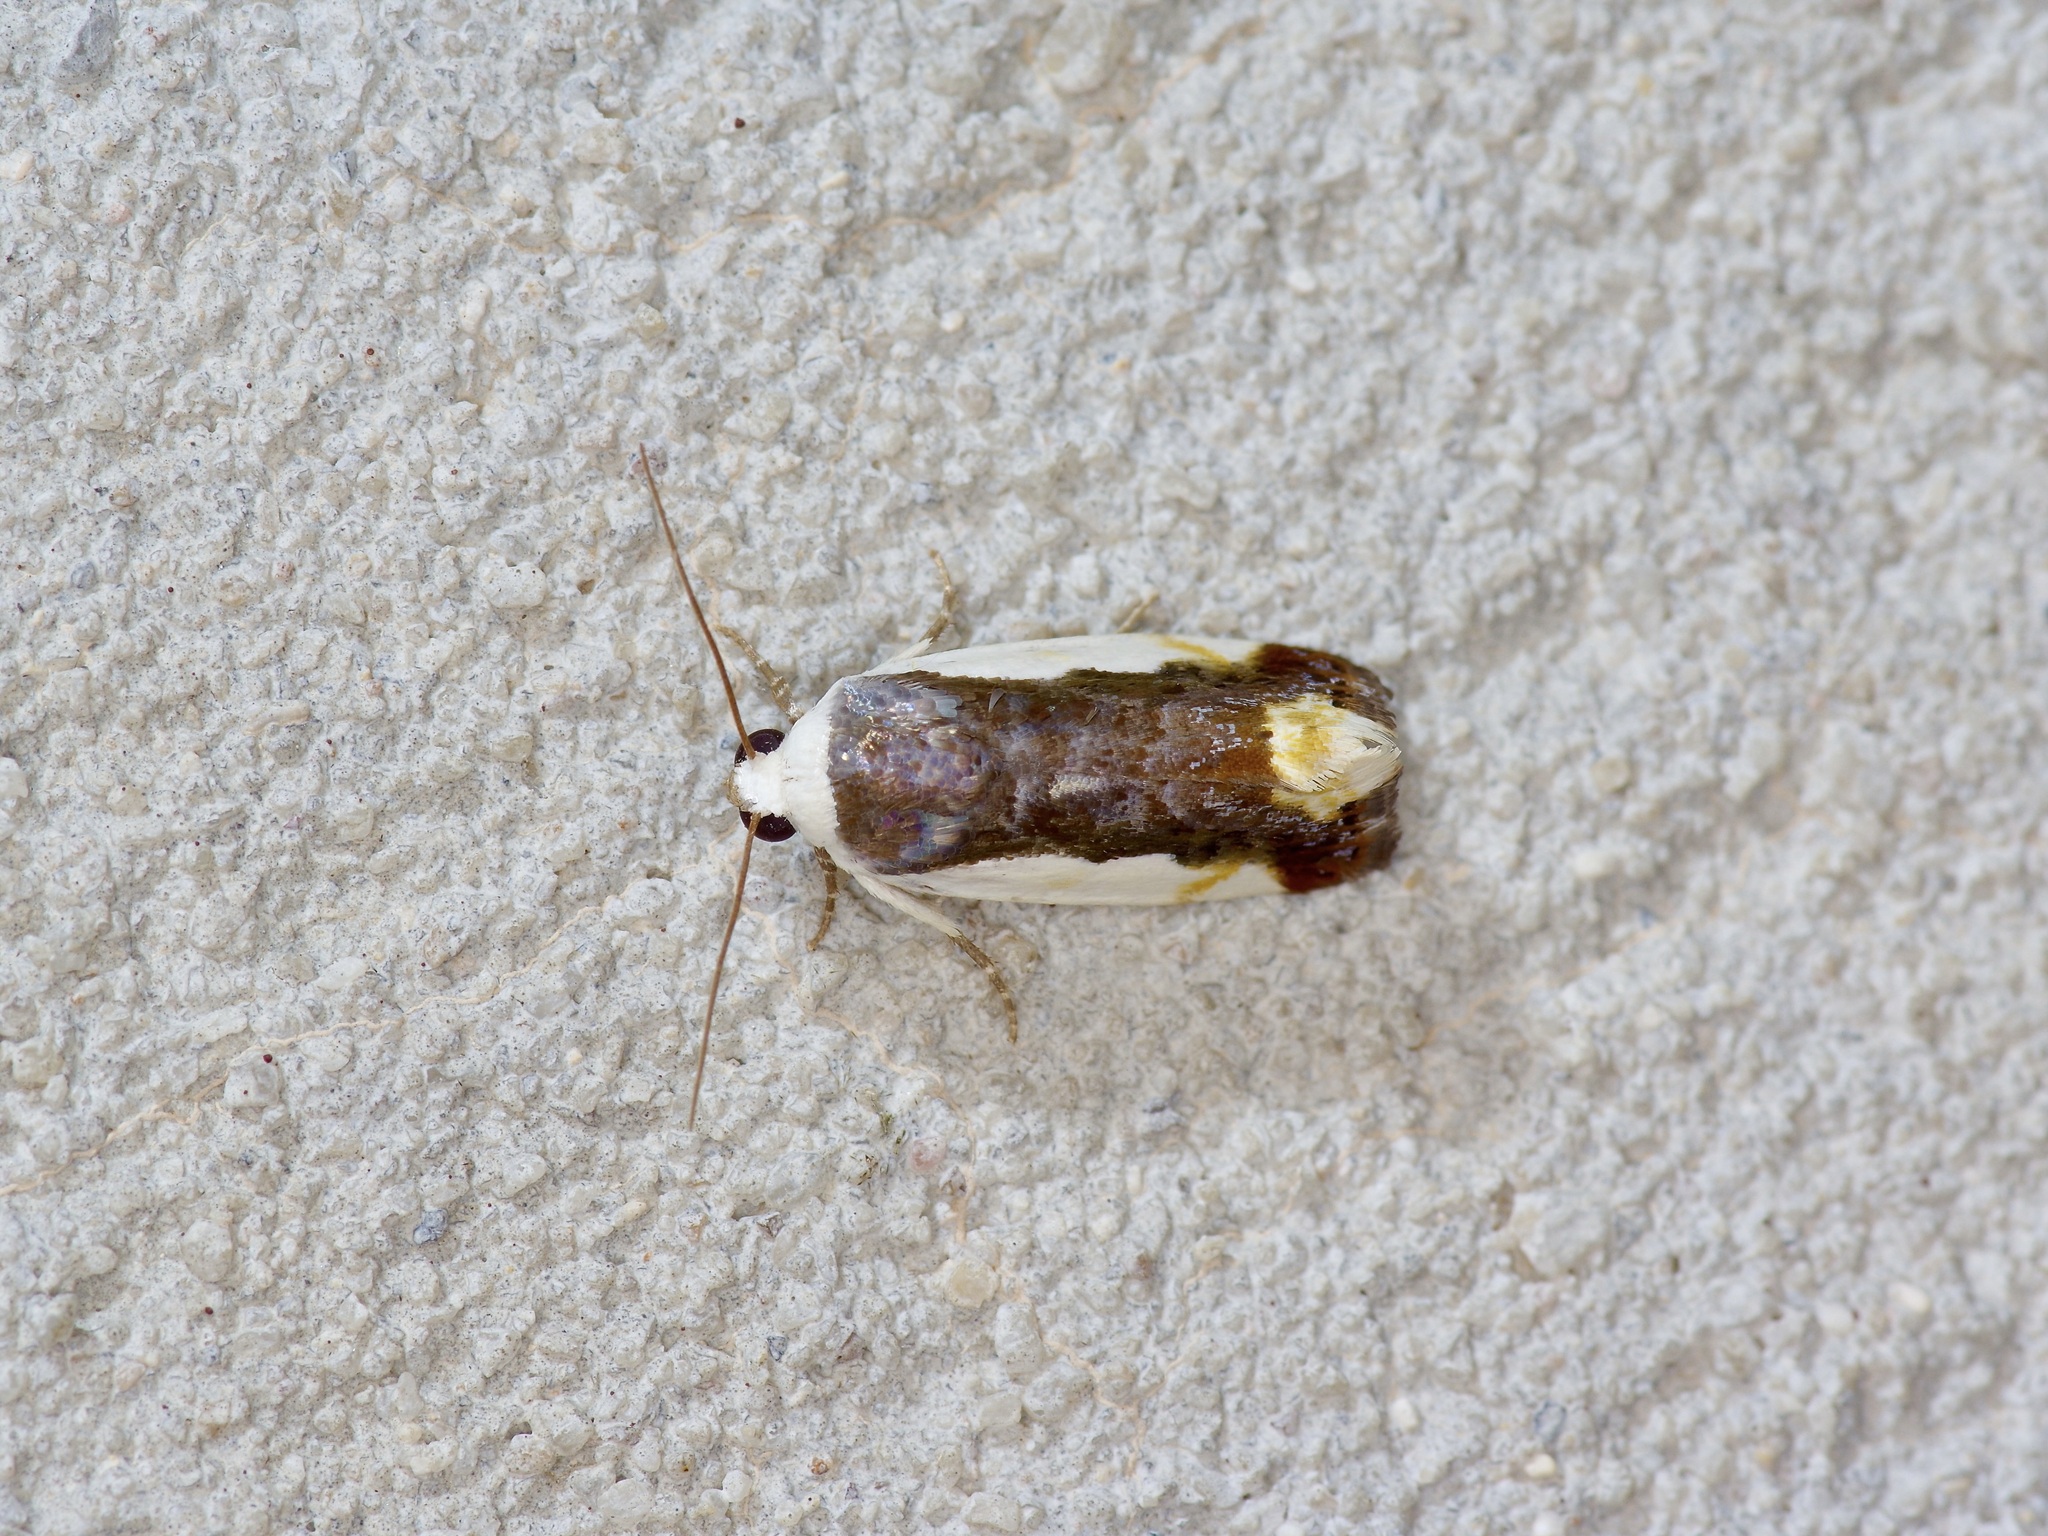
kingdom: Animalia
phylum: Arthropoda
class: Insecta
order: Lepidoptera
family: Noctuidae
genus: Acontia
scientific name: Acontia Tarache expolita
